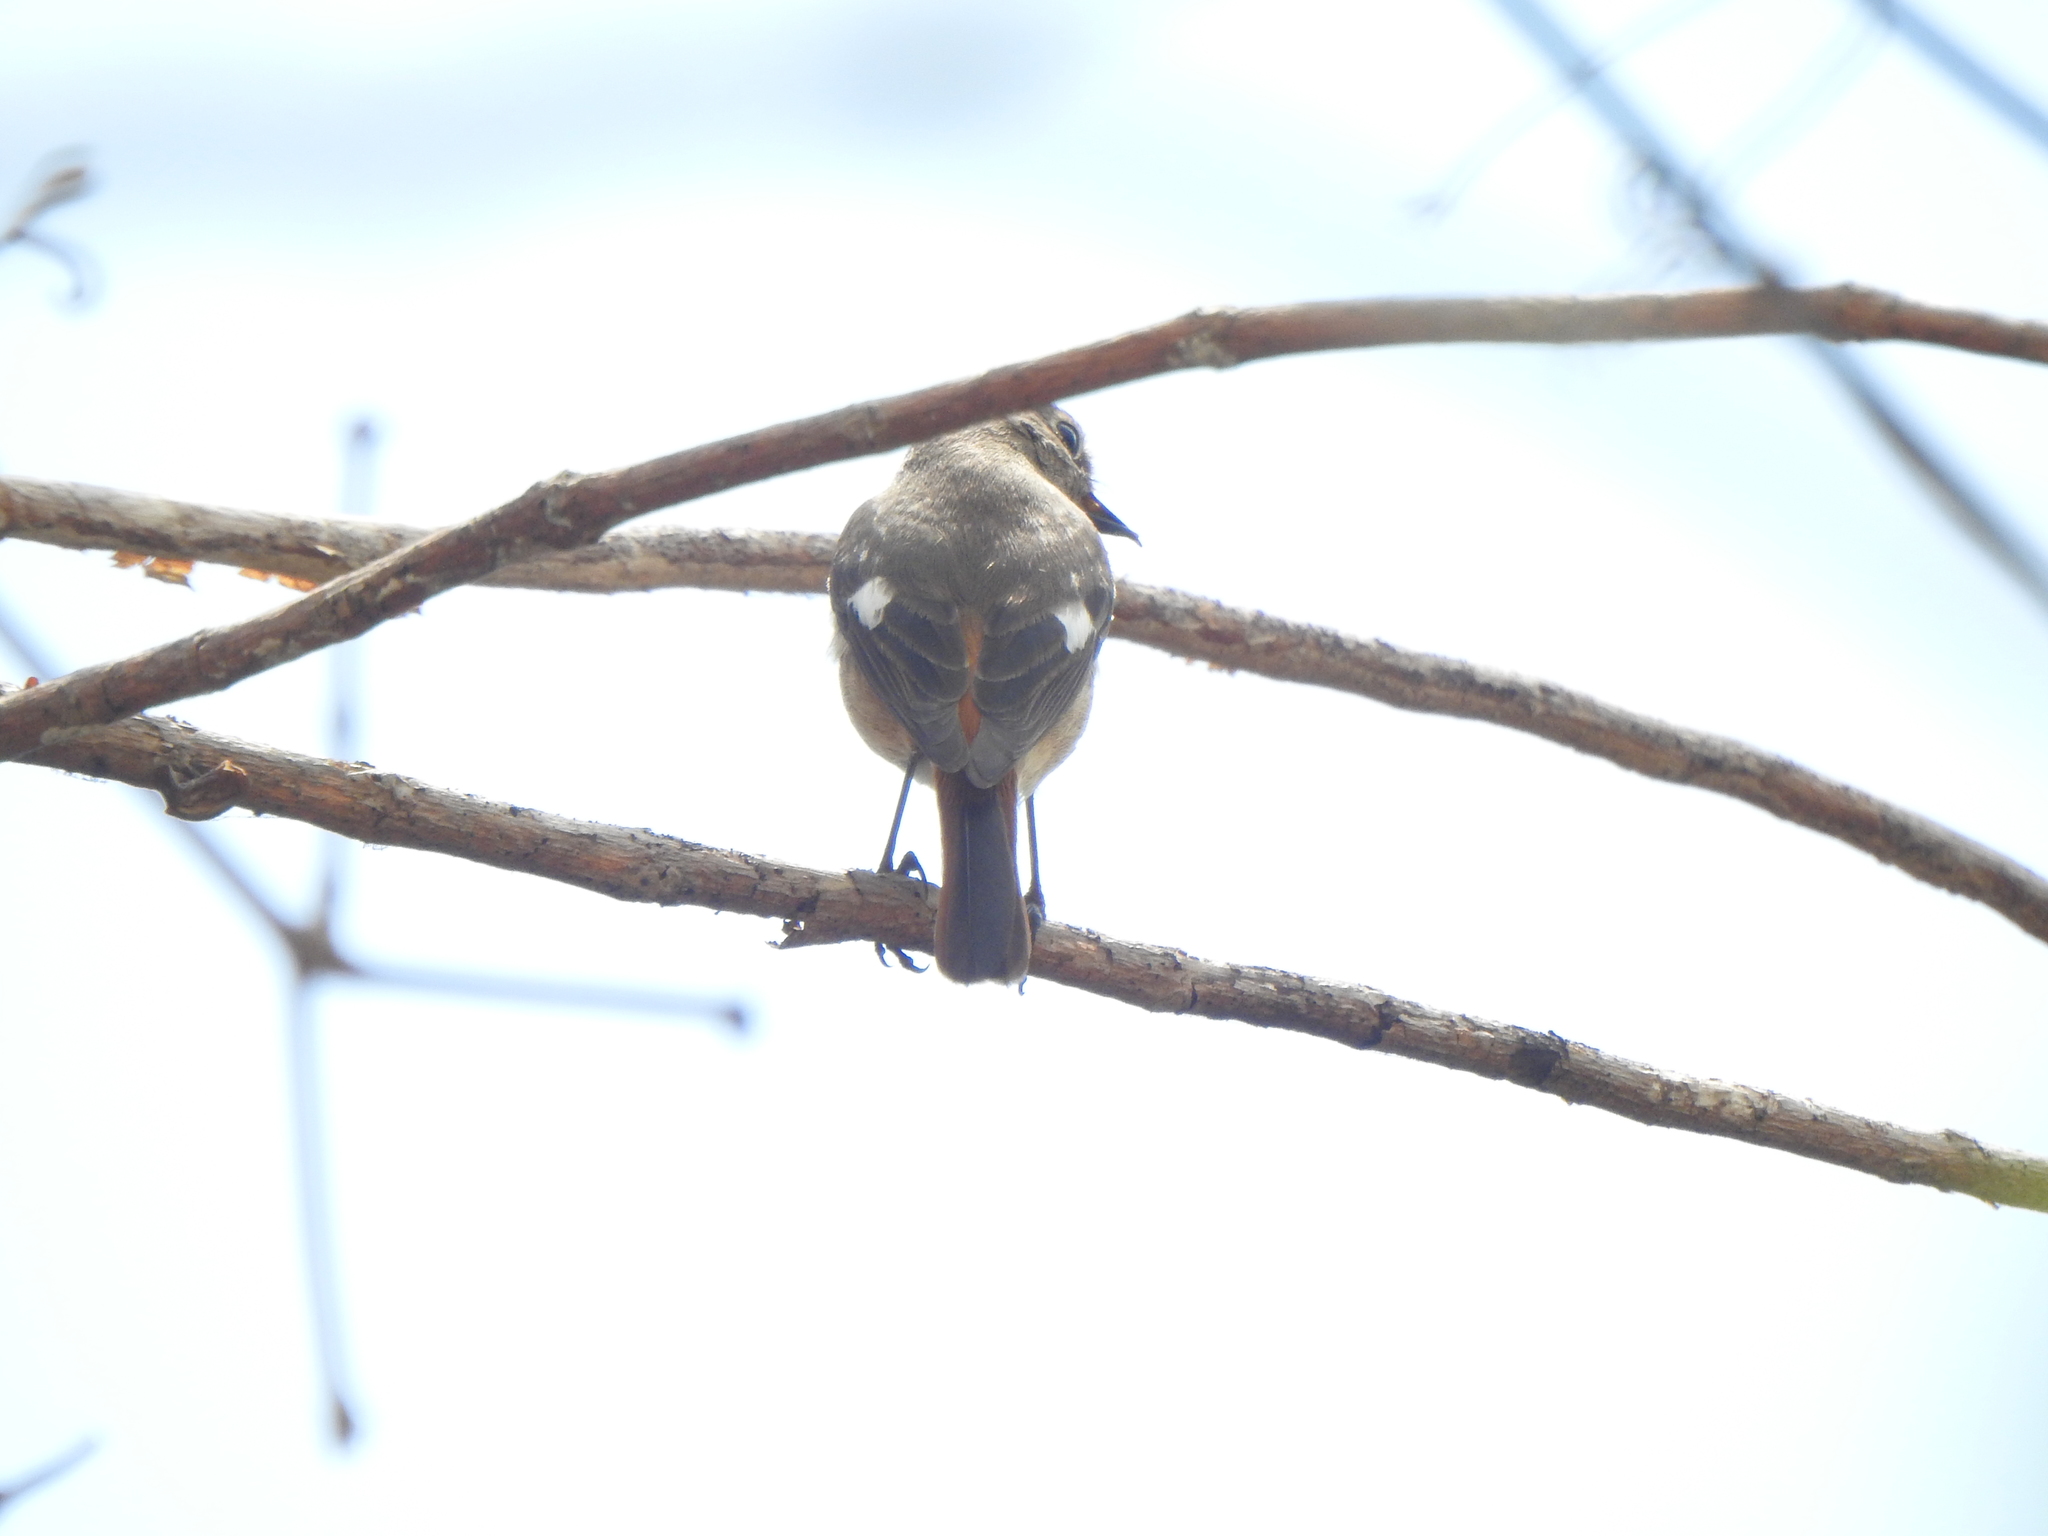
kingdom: Animalia
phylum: Chordata
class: Aves
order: Passeriformes
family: Muscicapidae
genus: Phoenicurus
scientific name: Phoenicurus auroreus
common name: Daurian redstart
